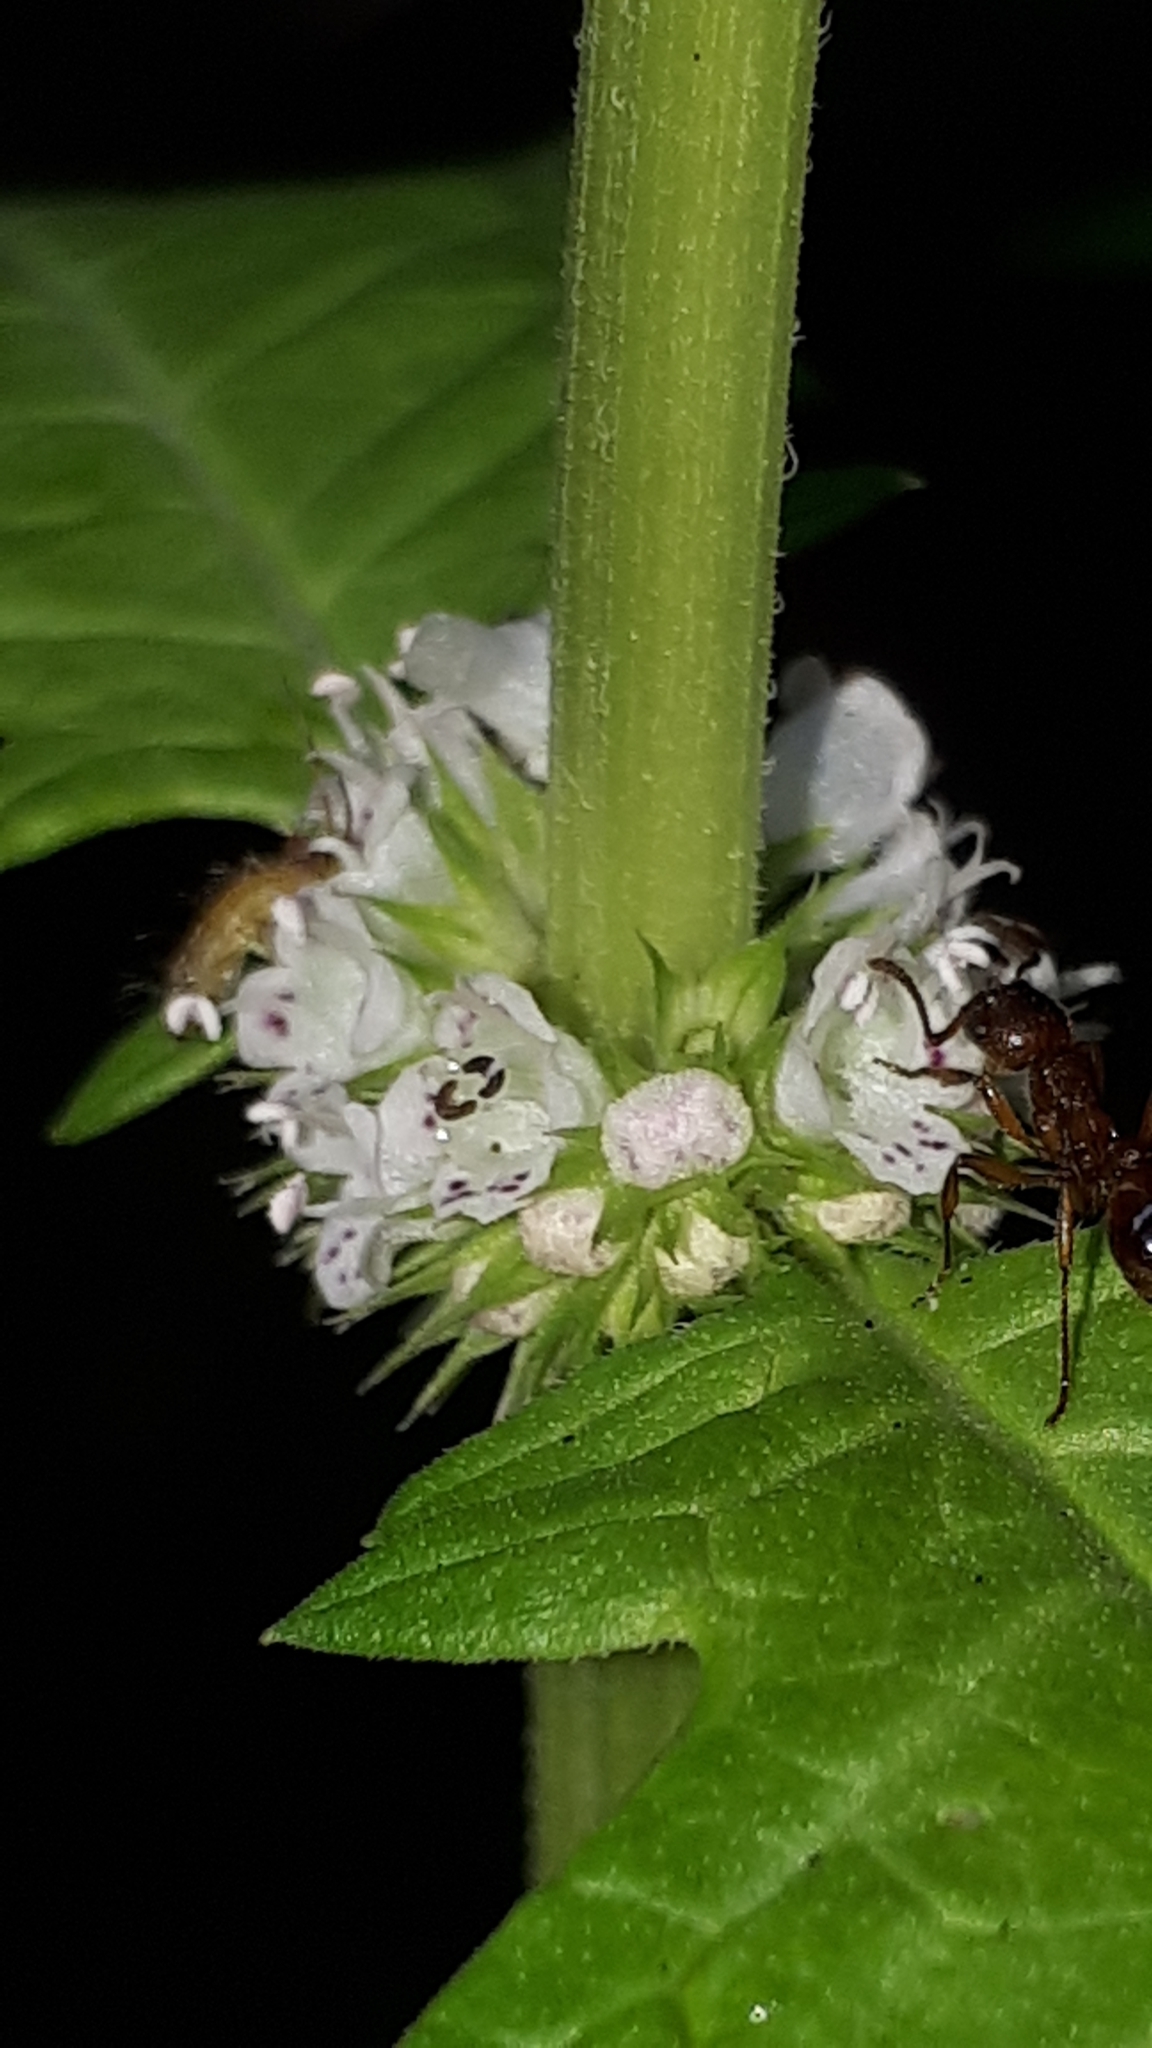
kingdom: Plantae
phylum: Tracheophyta
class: Magnoliopsida
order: Lamiales
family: Lamiaceae
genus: Lycopus
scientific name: Lycopus europaeus
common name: European bugleweed
